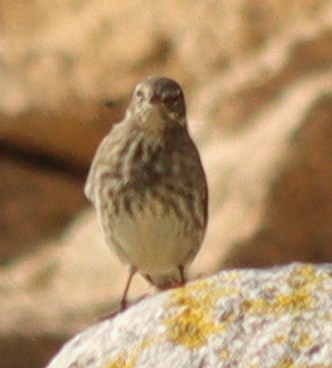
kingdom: Animalia
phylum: Chordata
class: Aves
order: Passeriformes
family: Motacillidae
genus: Anthus
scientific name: Anthus petrosus
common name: Eurasian rock pipit
